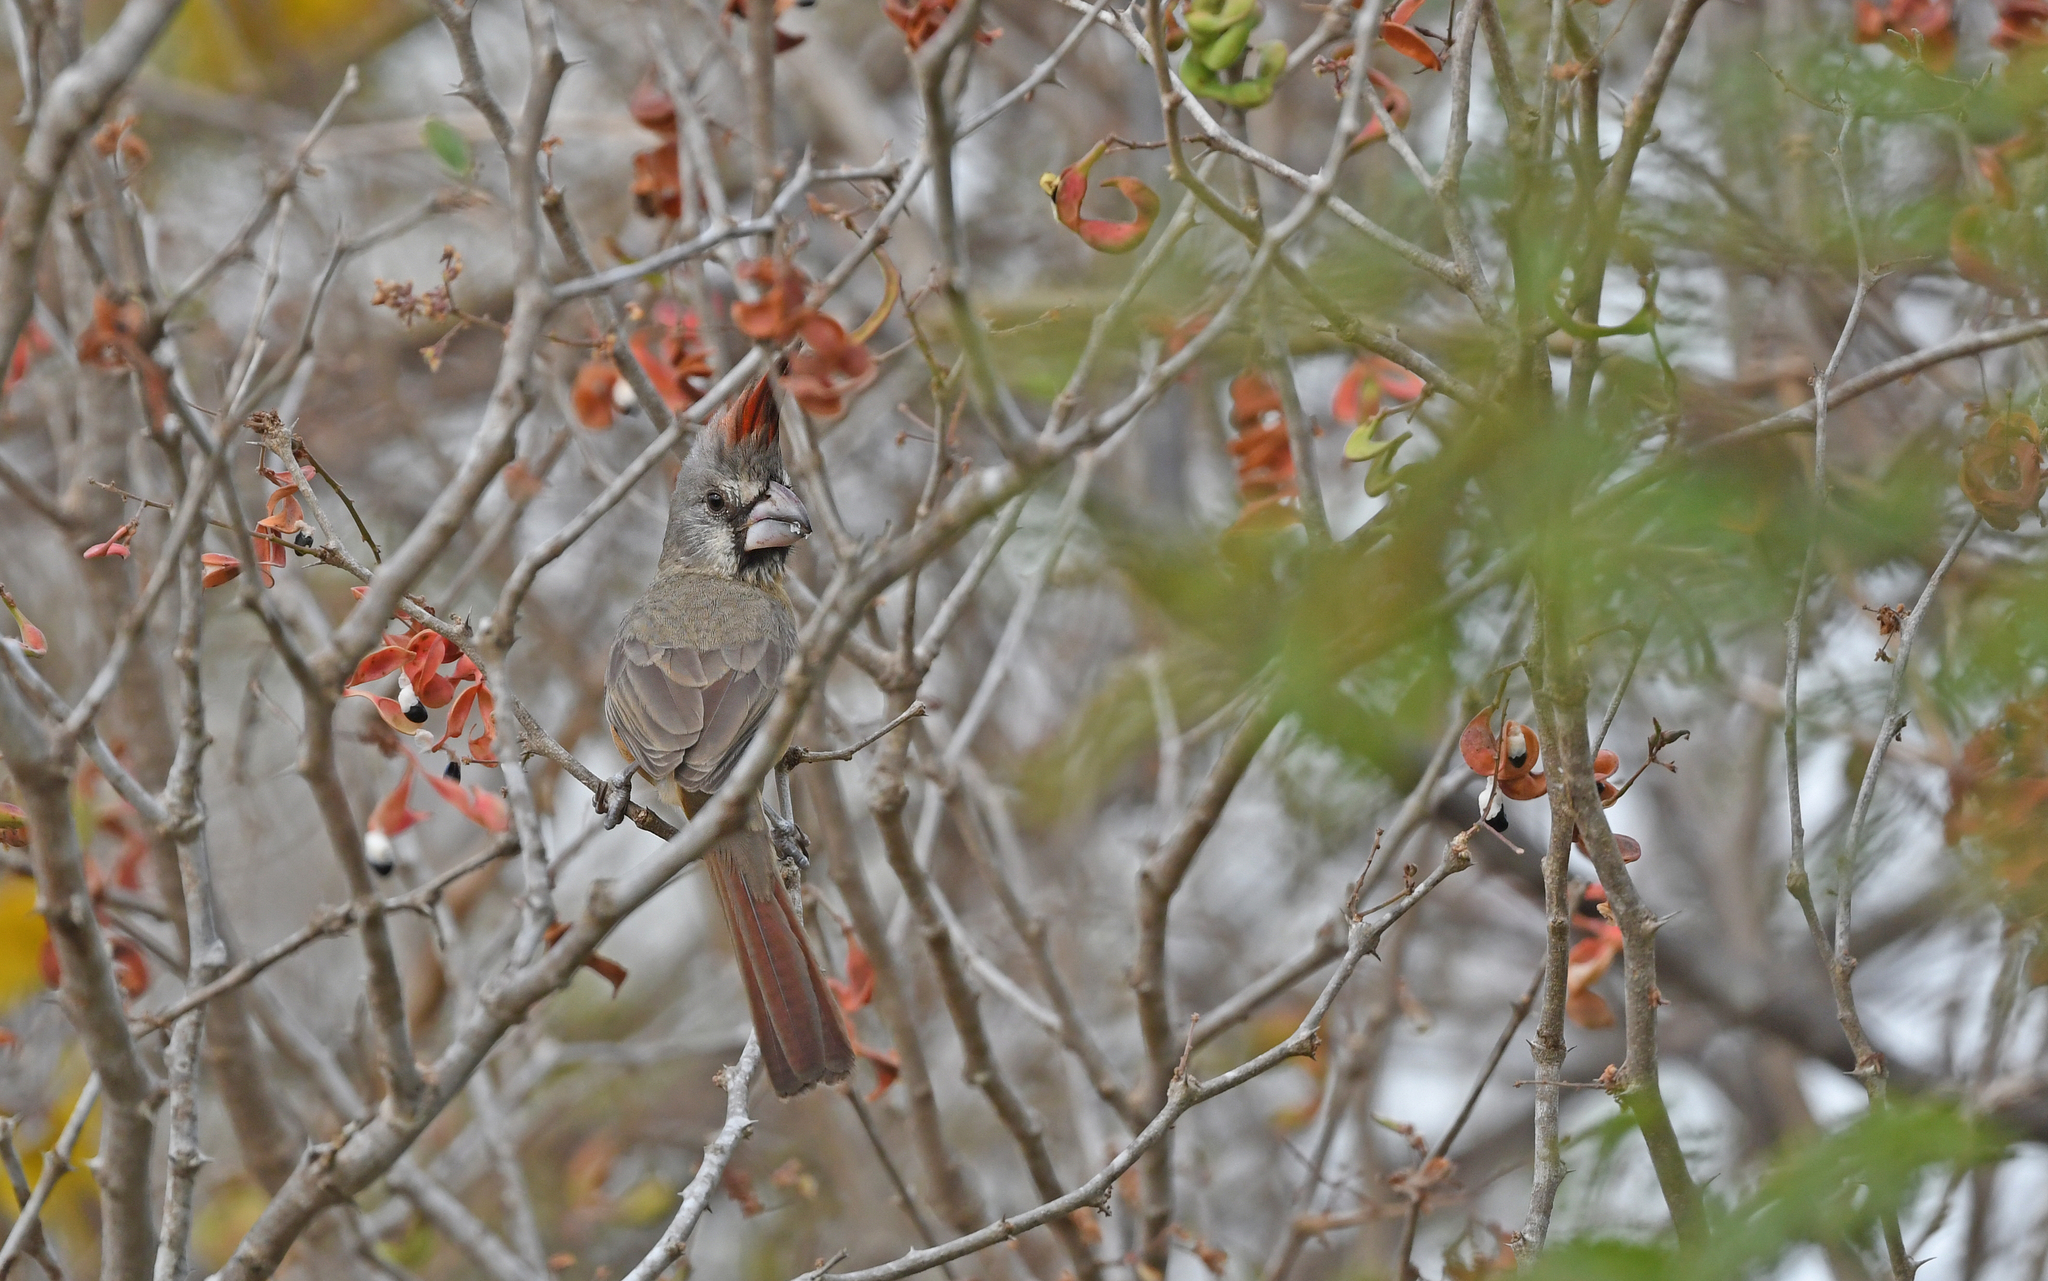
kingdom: Animalia
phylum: Chordata
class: Aves
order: Passeriformes
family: Cardinalidae
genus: Cardinalis
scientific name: Cardinalis phoeniceus
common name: Vermilion cardinal
